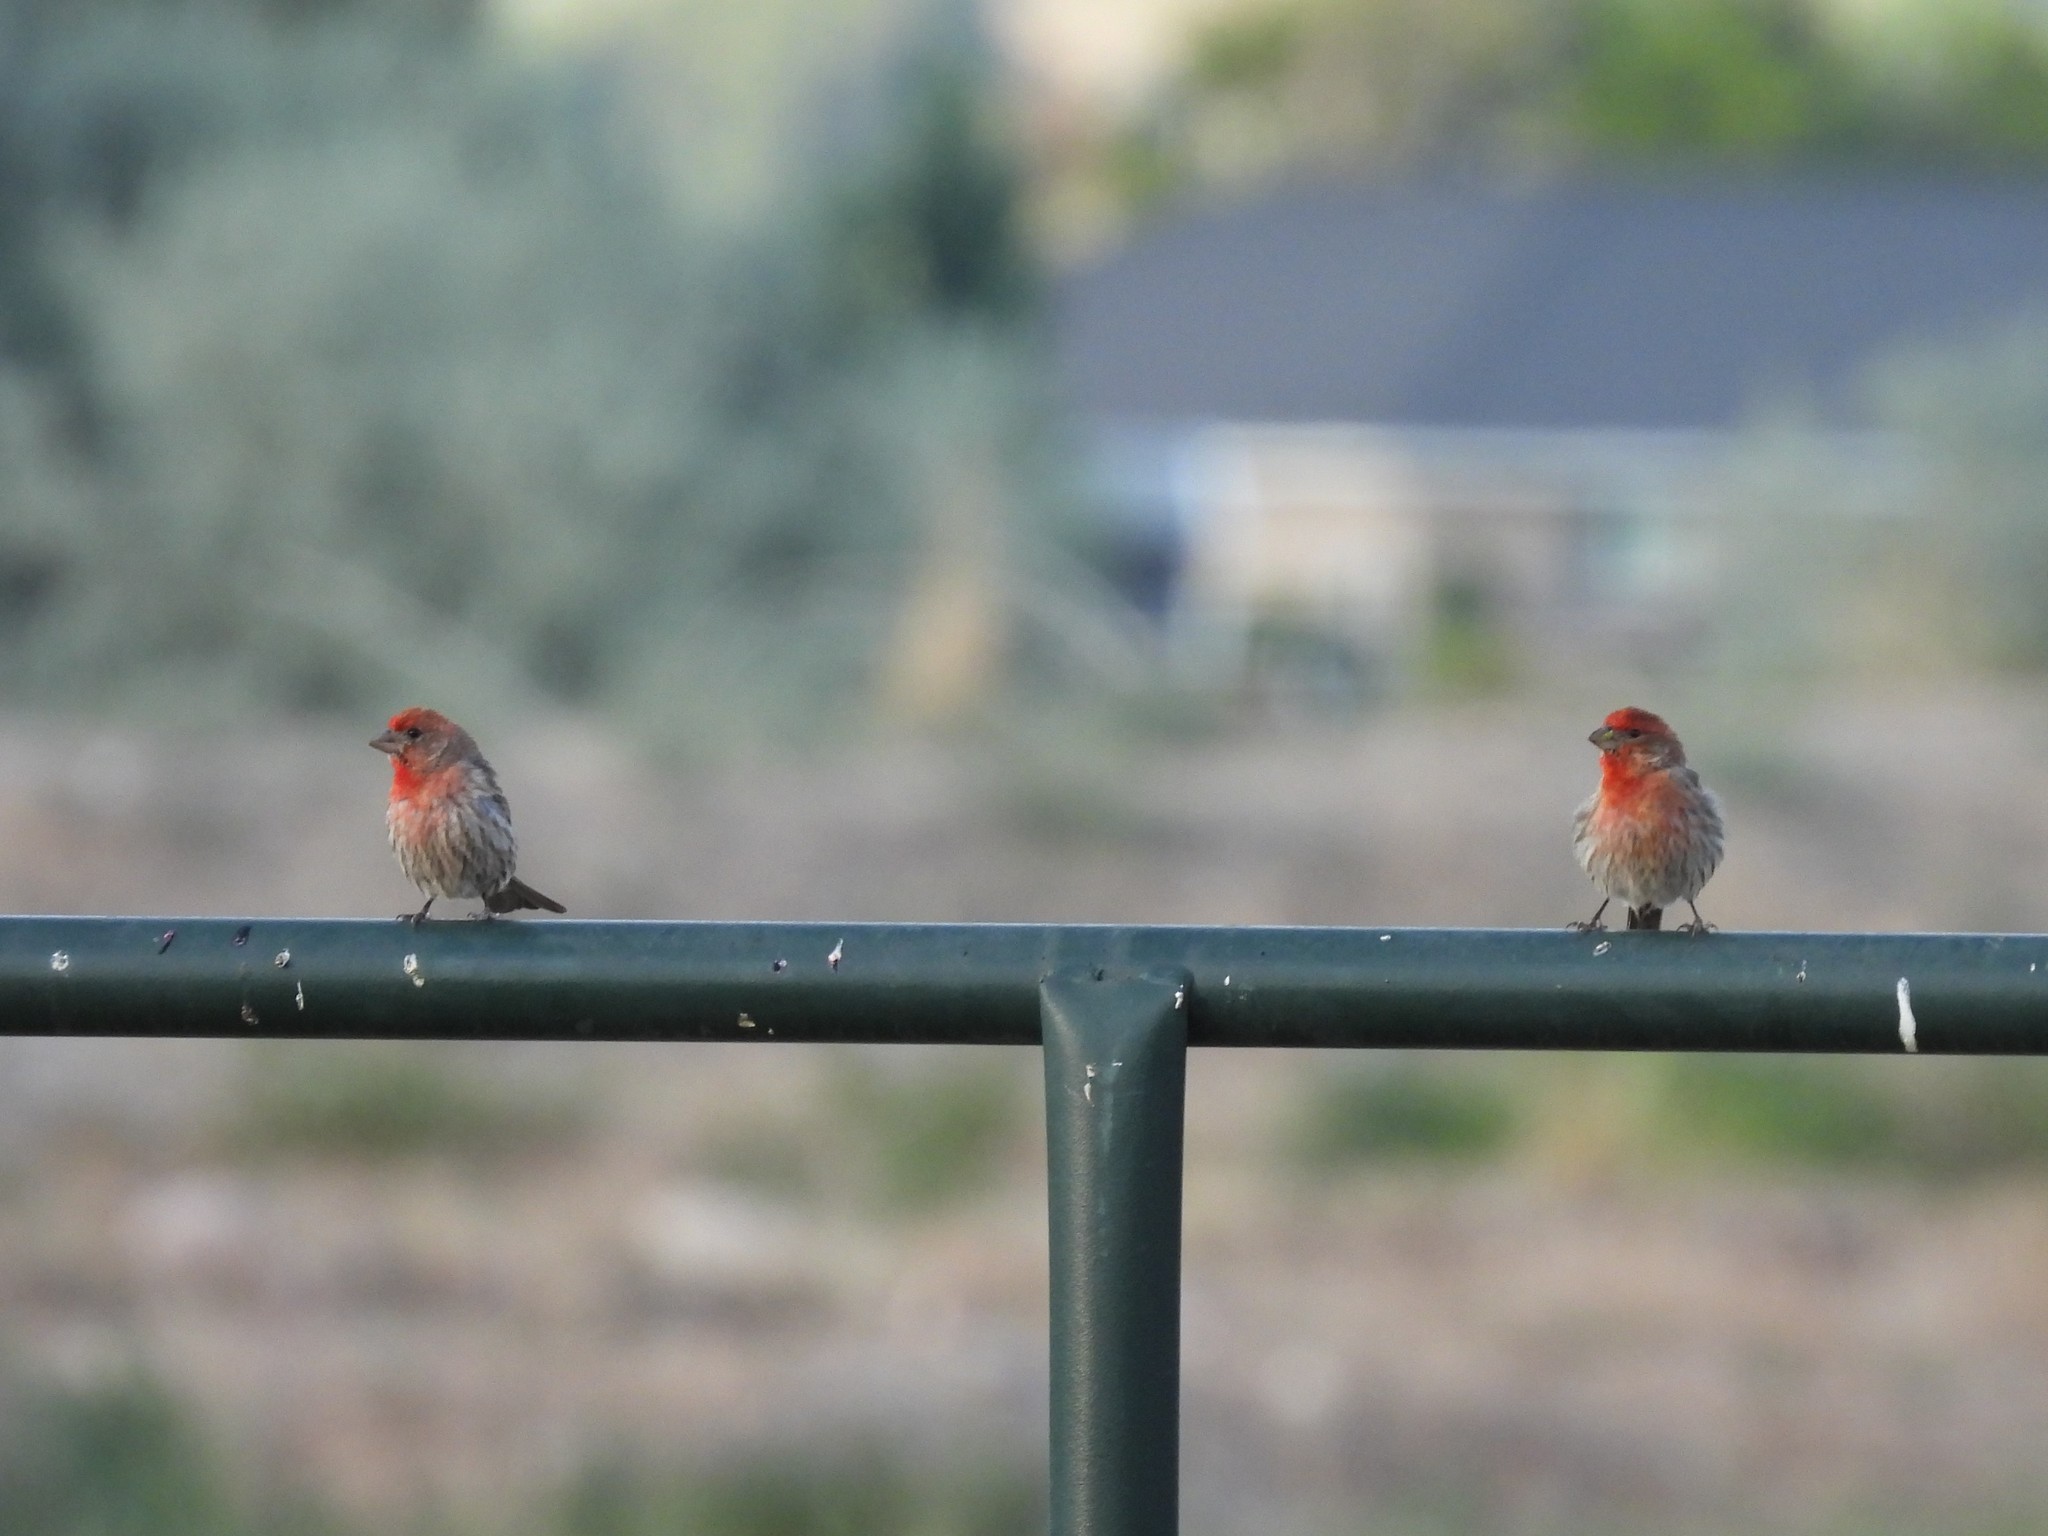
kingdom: Animalia
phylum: Chordata
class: Aves
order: Passeriformes
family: Fringillidae
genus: Haemorhous
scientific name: Haemorhous mexicanus
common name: House finch
